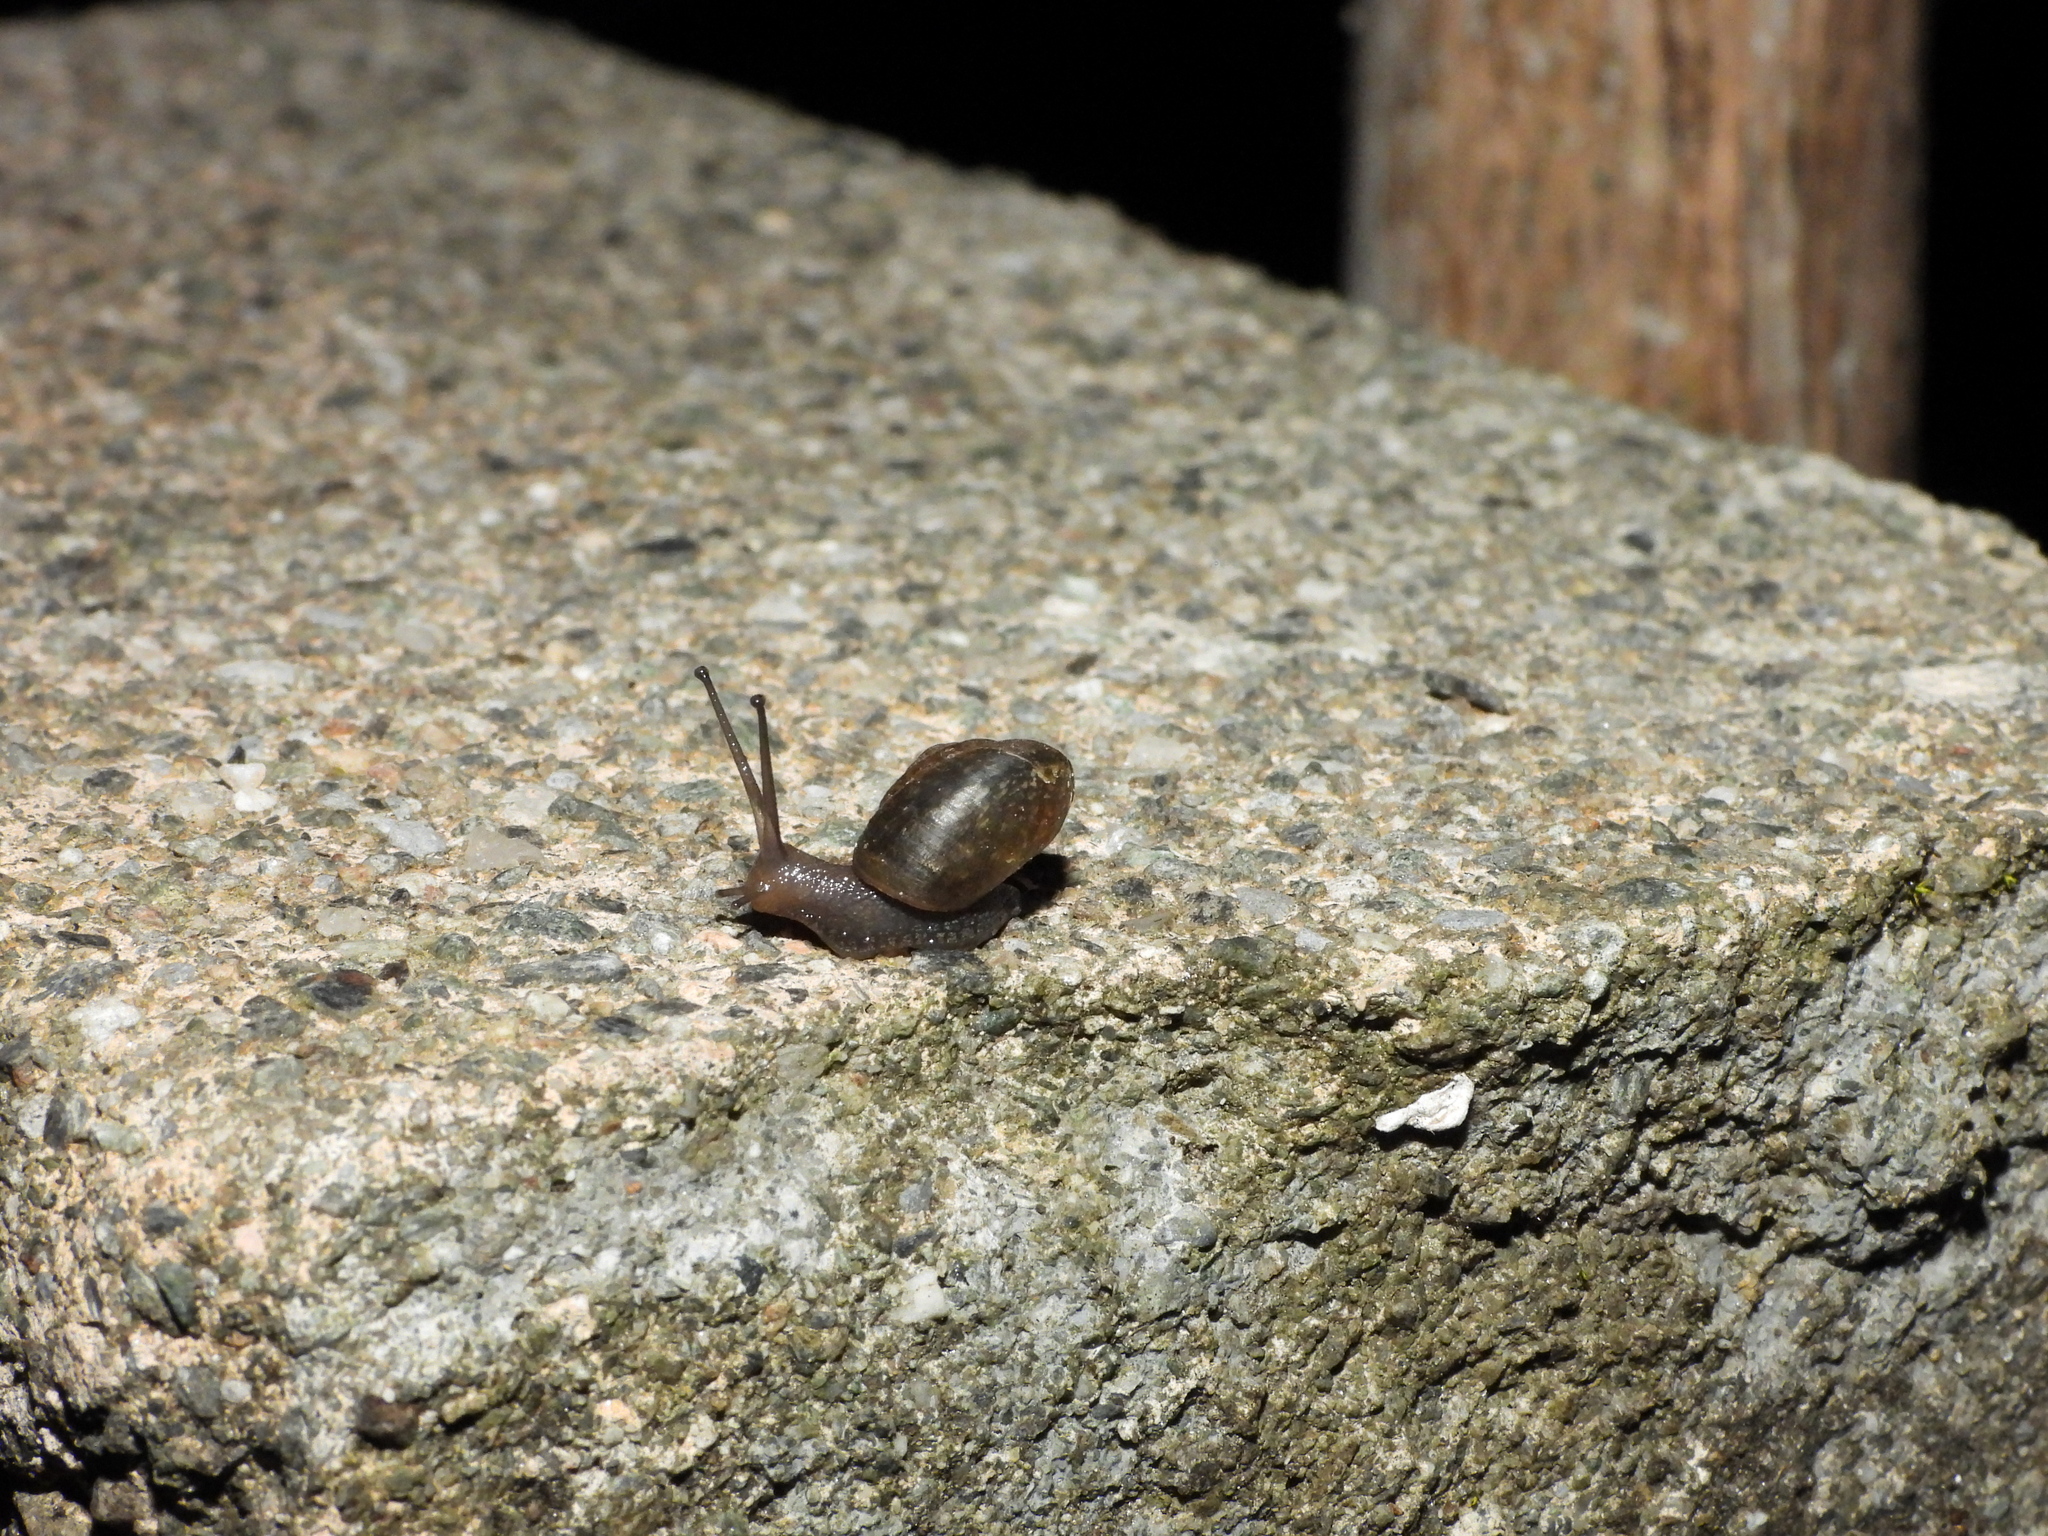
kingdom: Animalia
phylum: Mollusca
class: Gastropoda
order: Stylommatophora
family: Camaenidae
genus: Bradybaena
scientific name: Bradybaena similaris
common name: Asian trampsnail
